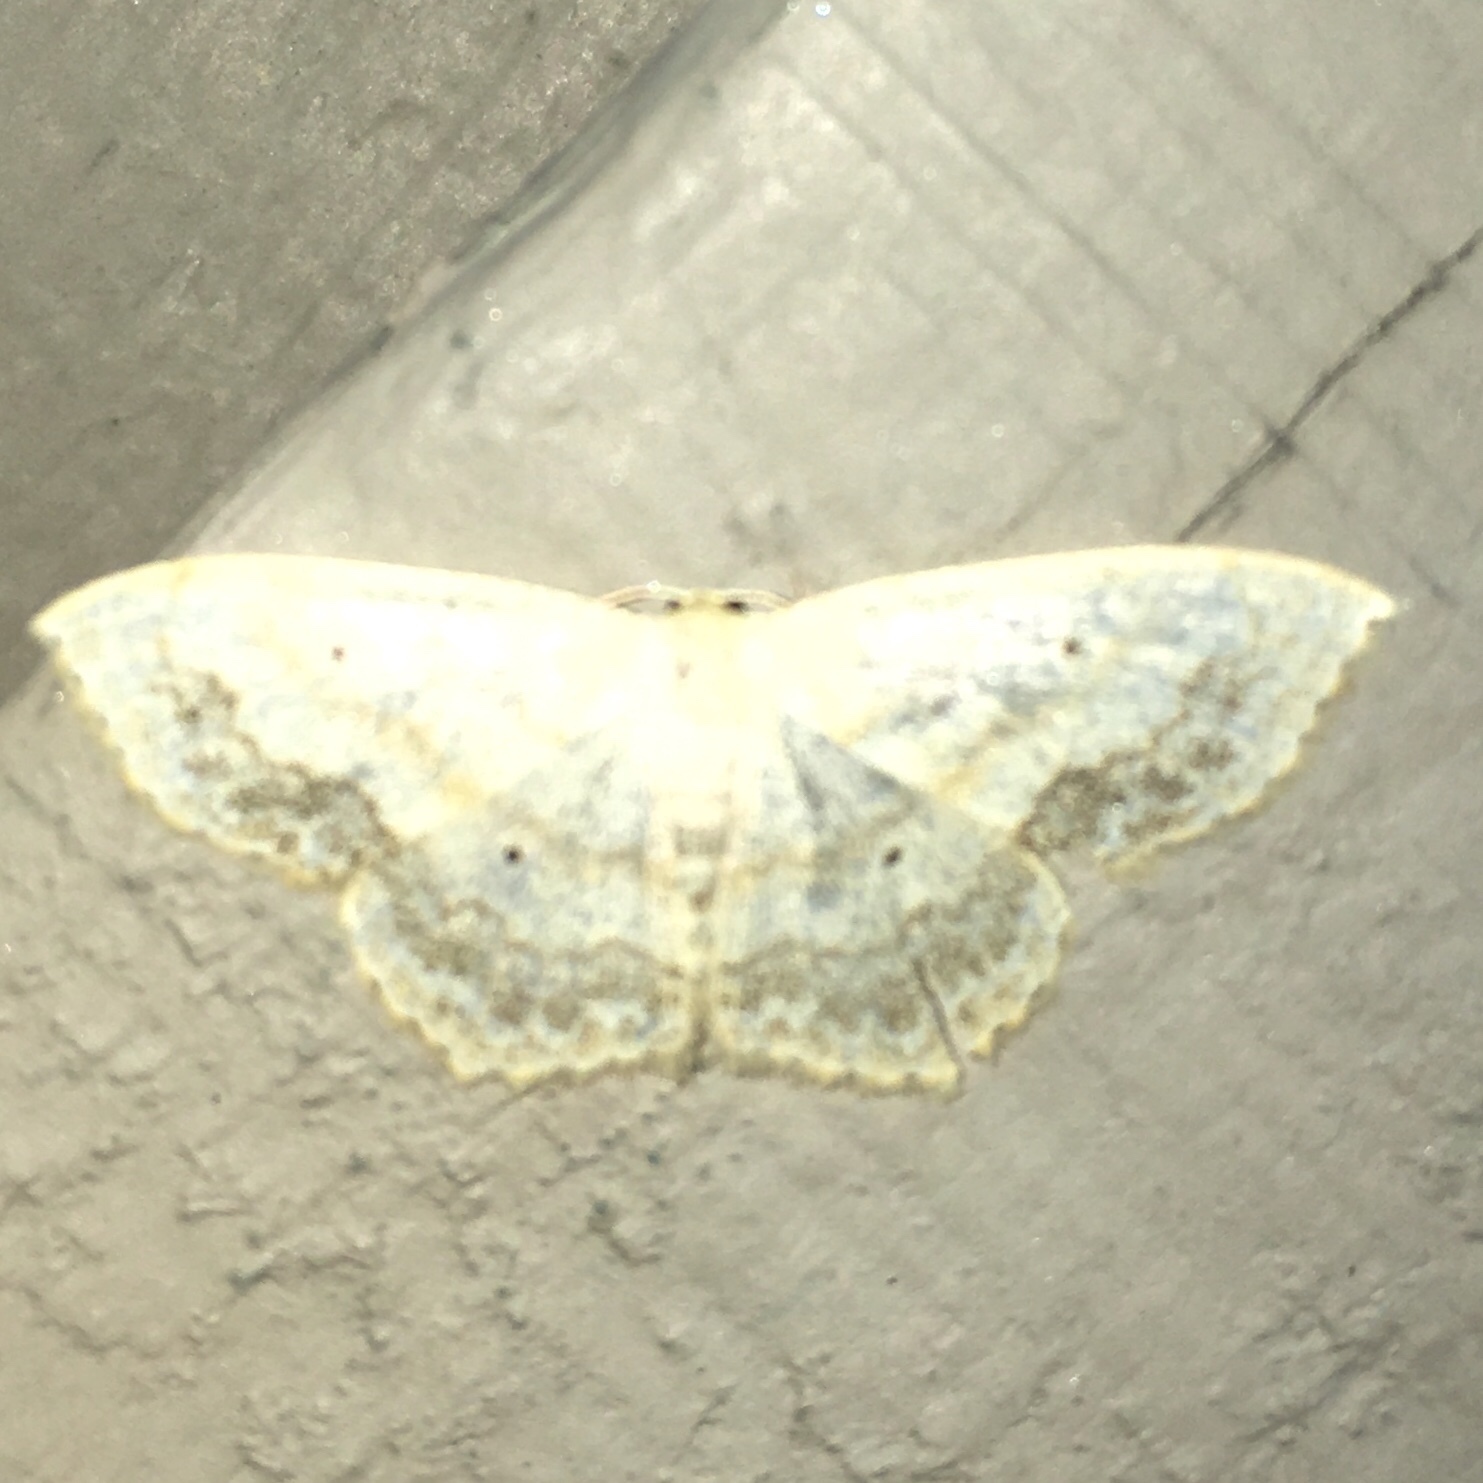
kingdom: Animalia
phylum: Arthropoda
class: Insecta
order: Lepidoptera
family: Geometridae
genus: Scopula
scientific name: Scopula limboundata
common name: Large lace border
